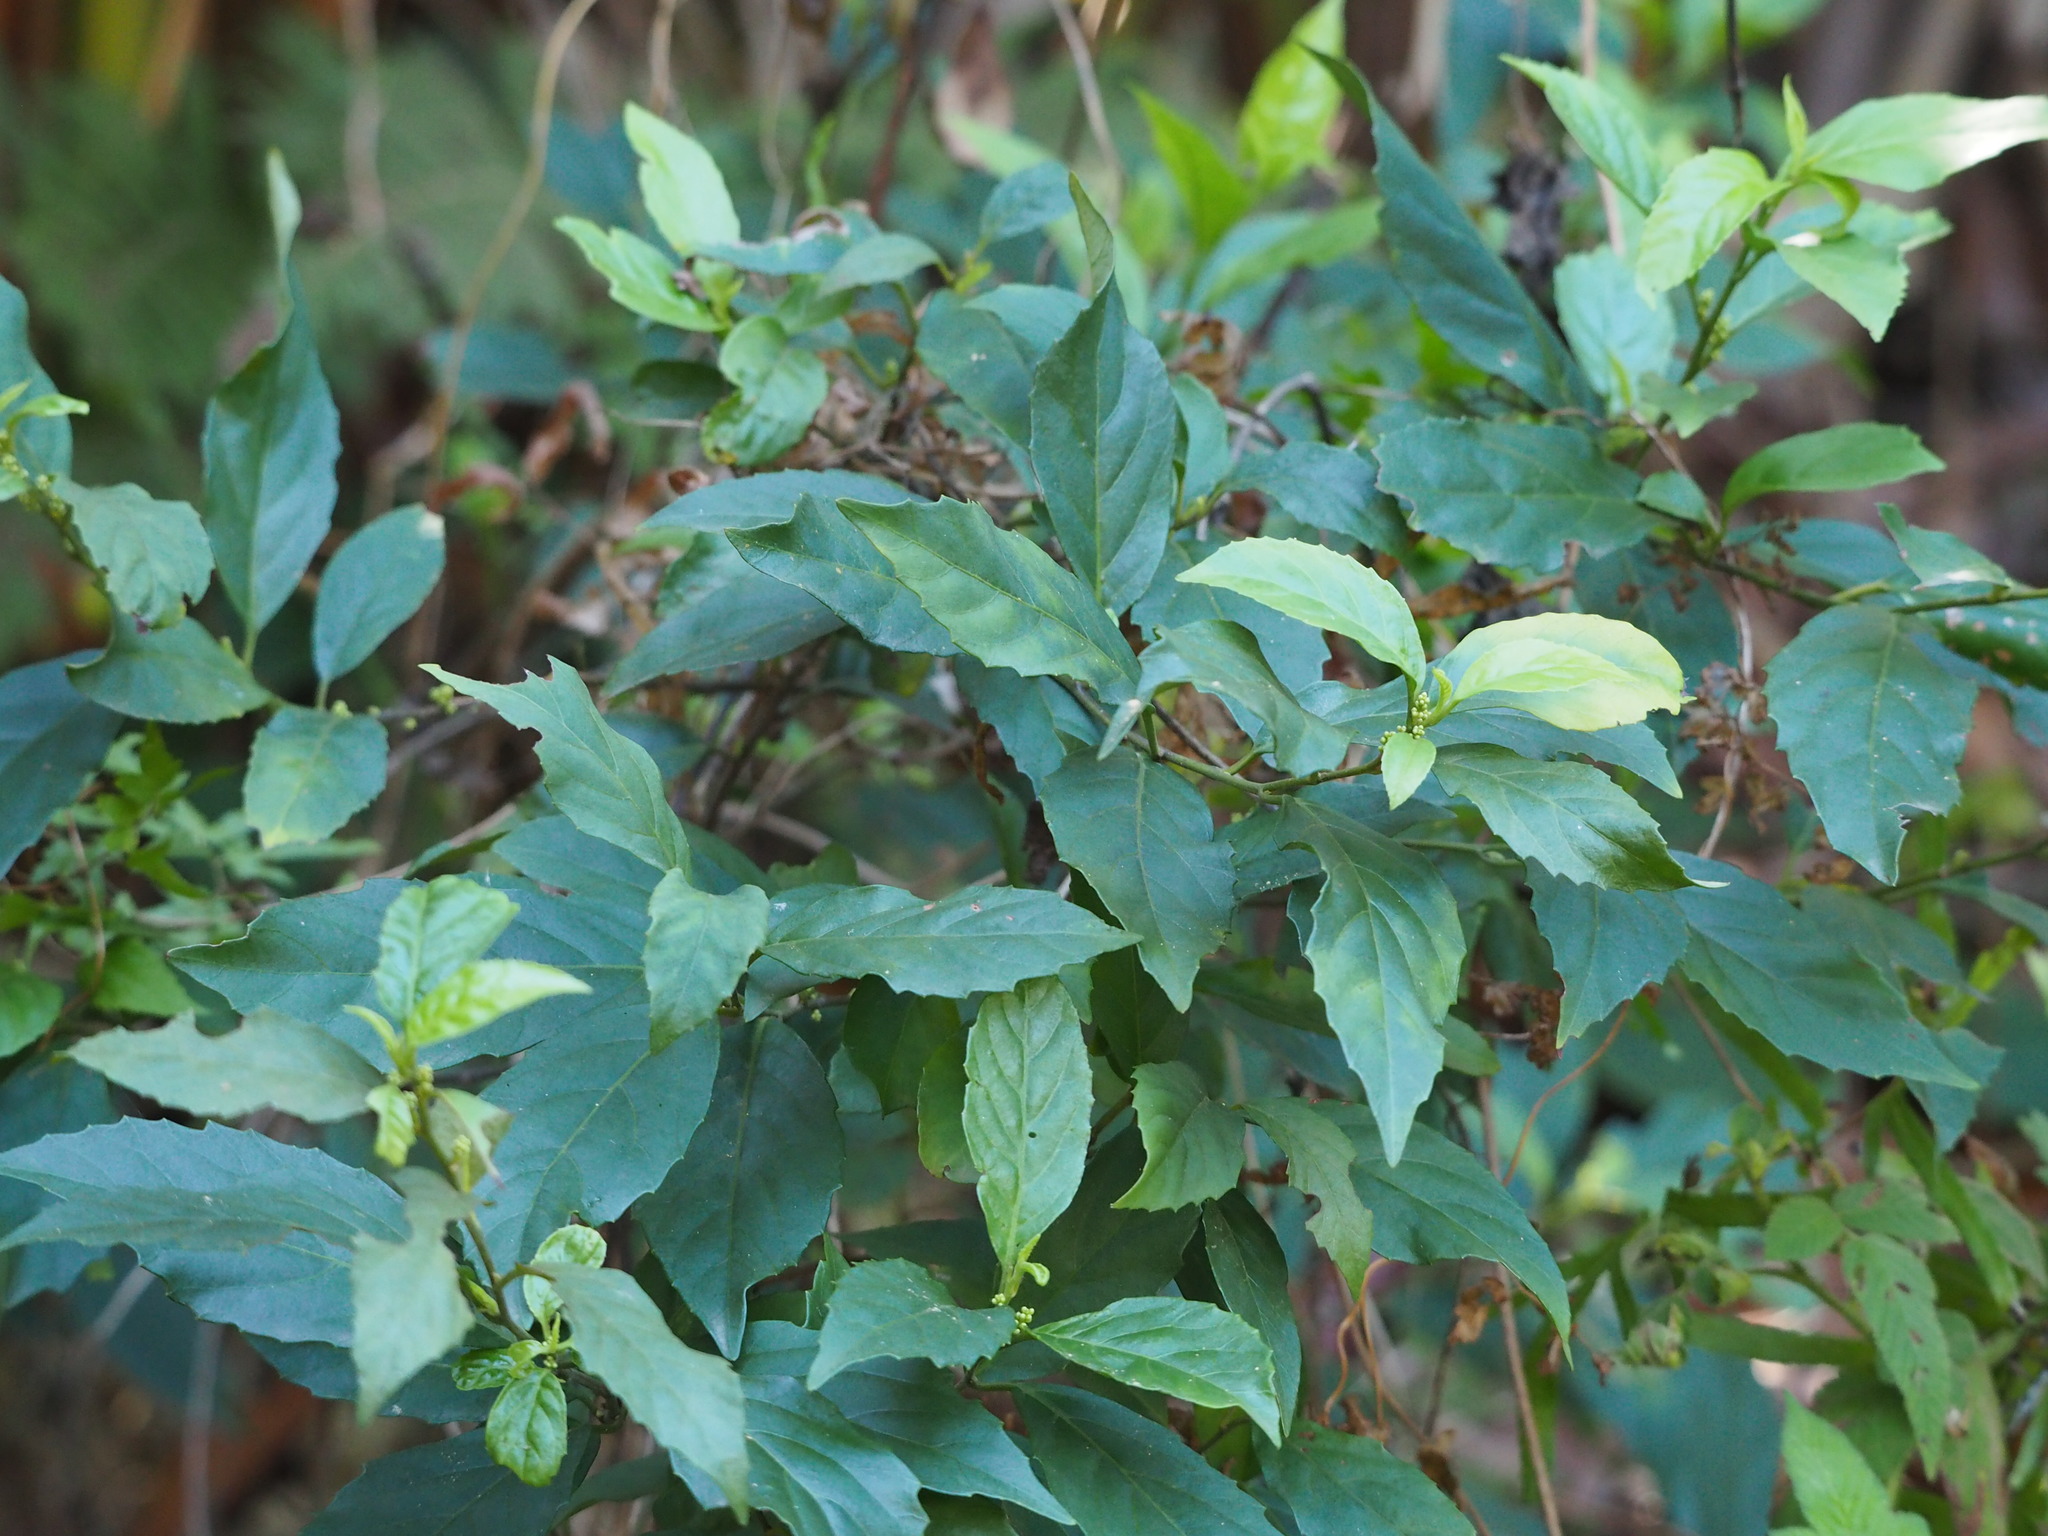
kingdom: Plantae
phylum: Tracheophyta
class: Magnoliopsida
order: Ericales
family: Primulaceae
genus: Maesa
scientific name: Maesa perlaria
